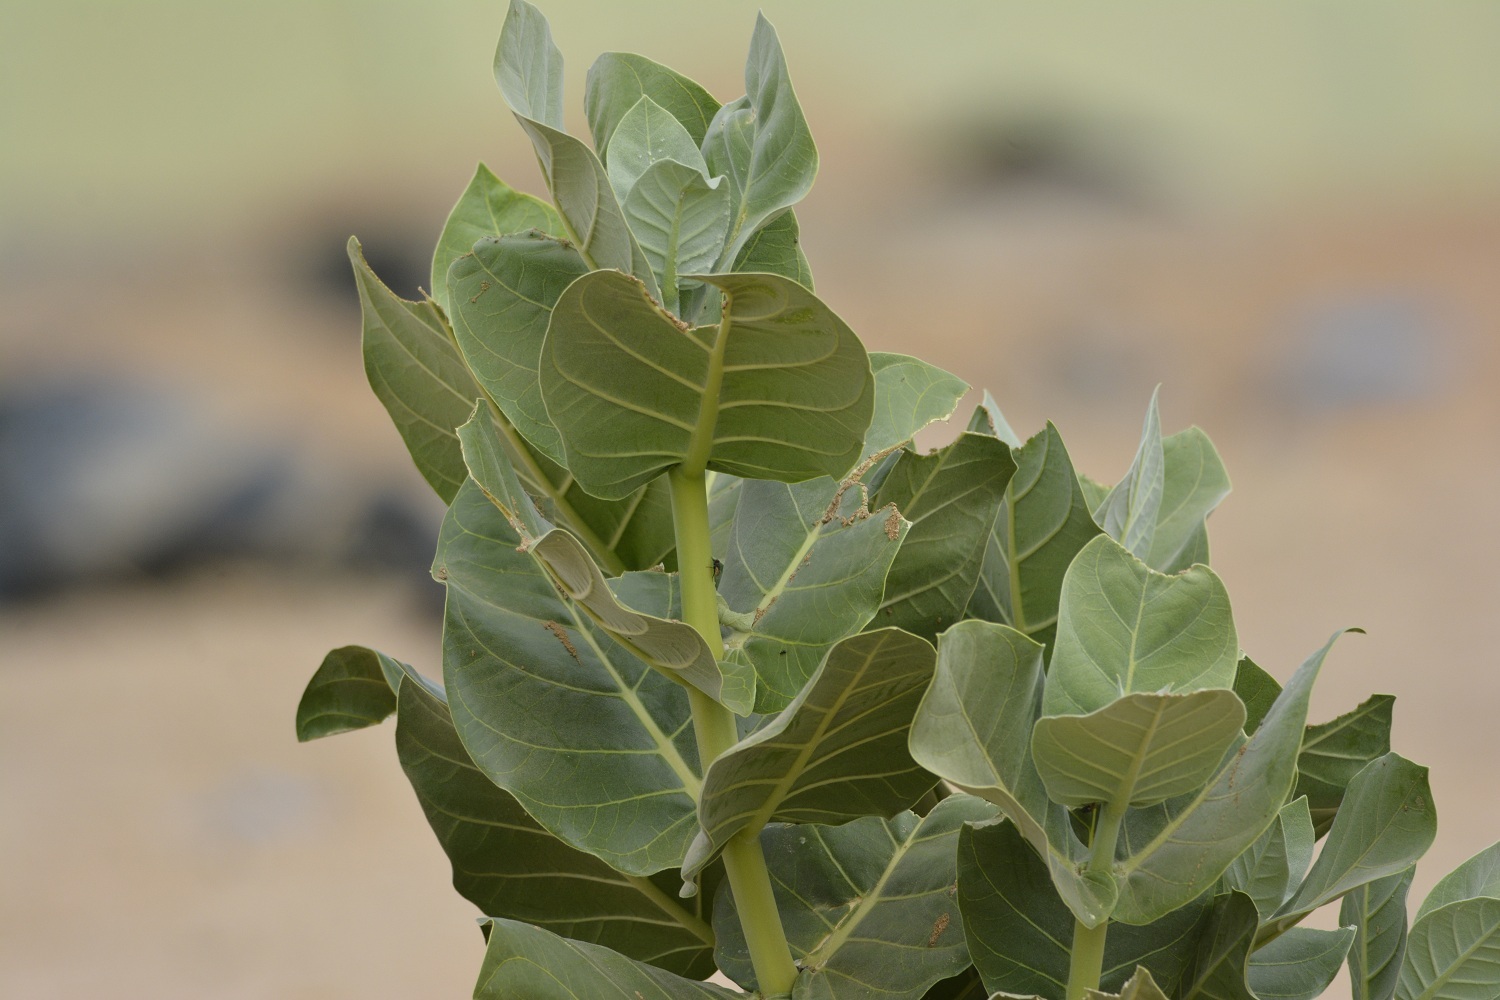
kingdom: Plantae
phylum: Tracheophyta
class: Magnoliopsida
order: Gentianales
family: Apocynaceae
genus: Calotropis
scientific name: Calotropis procera
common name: Roostertree
